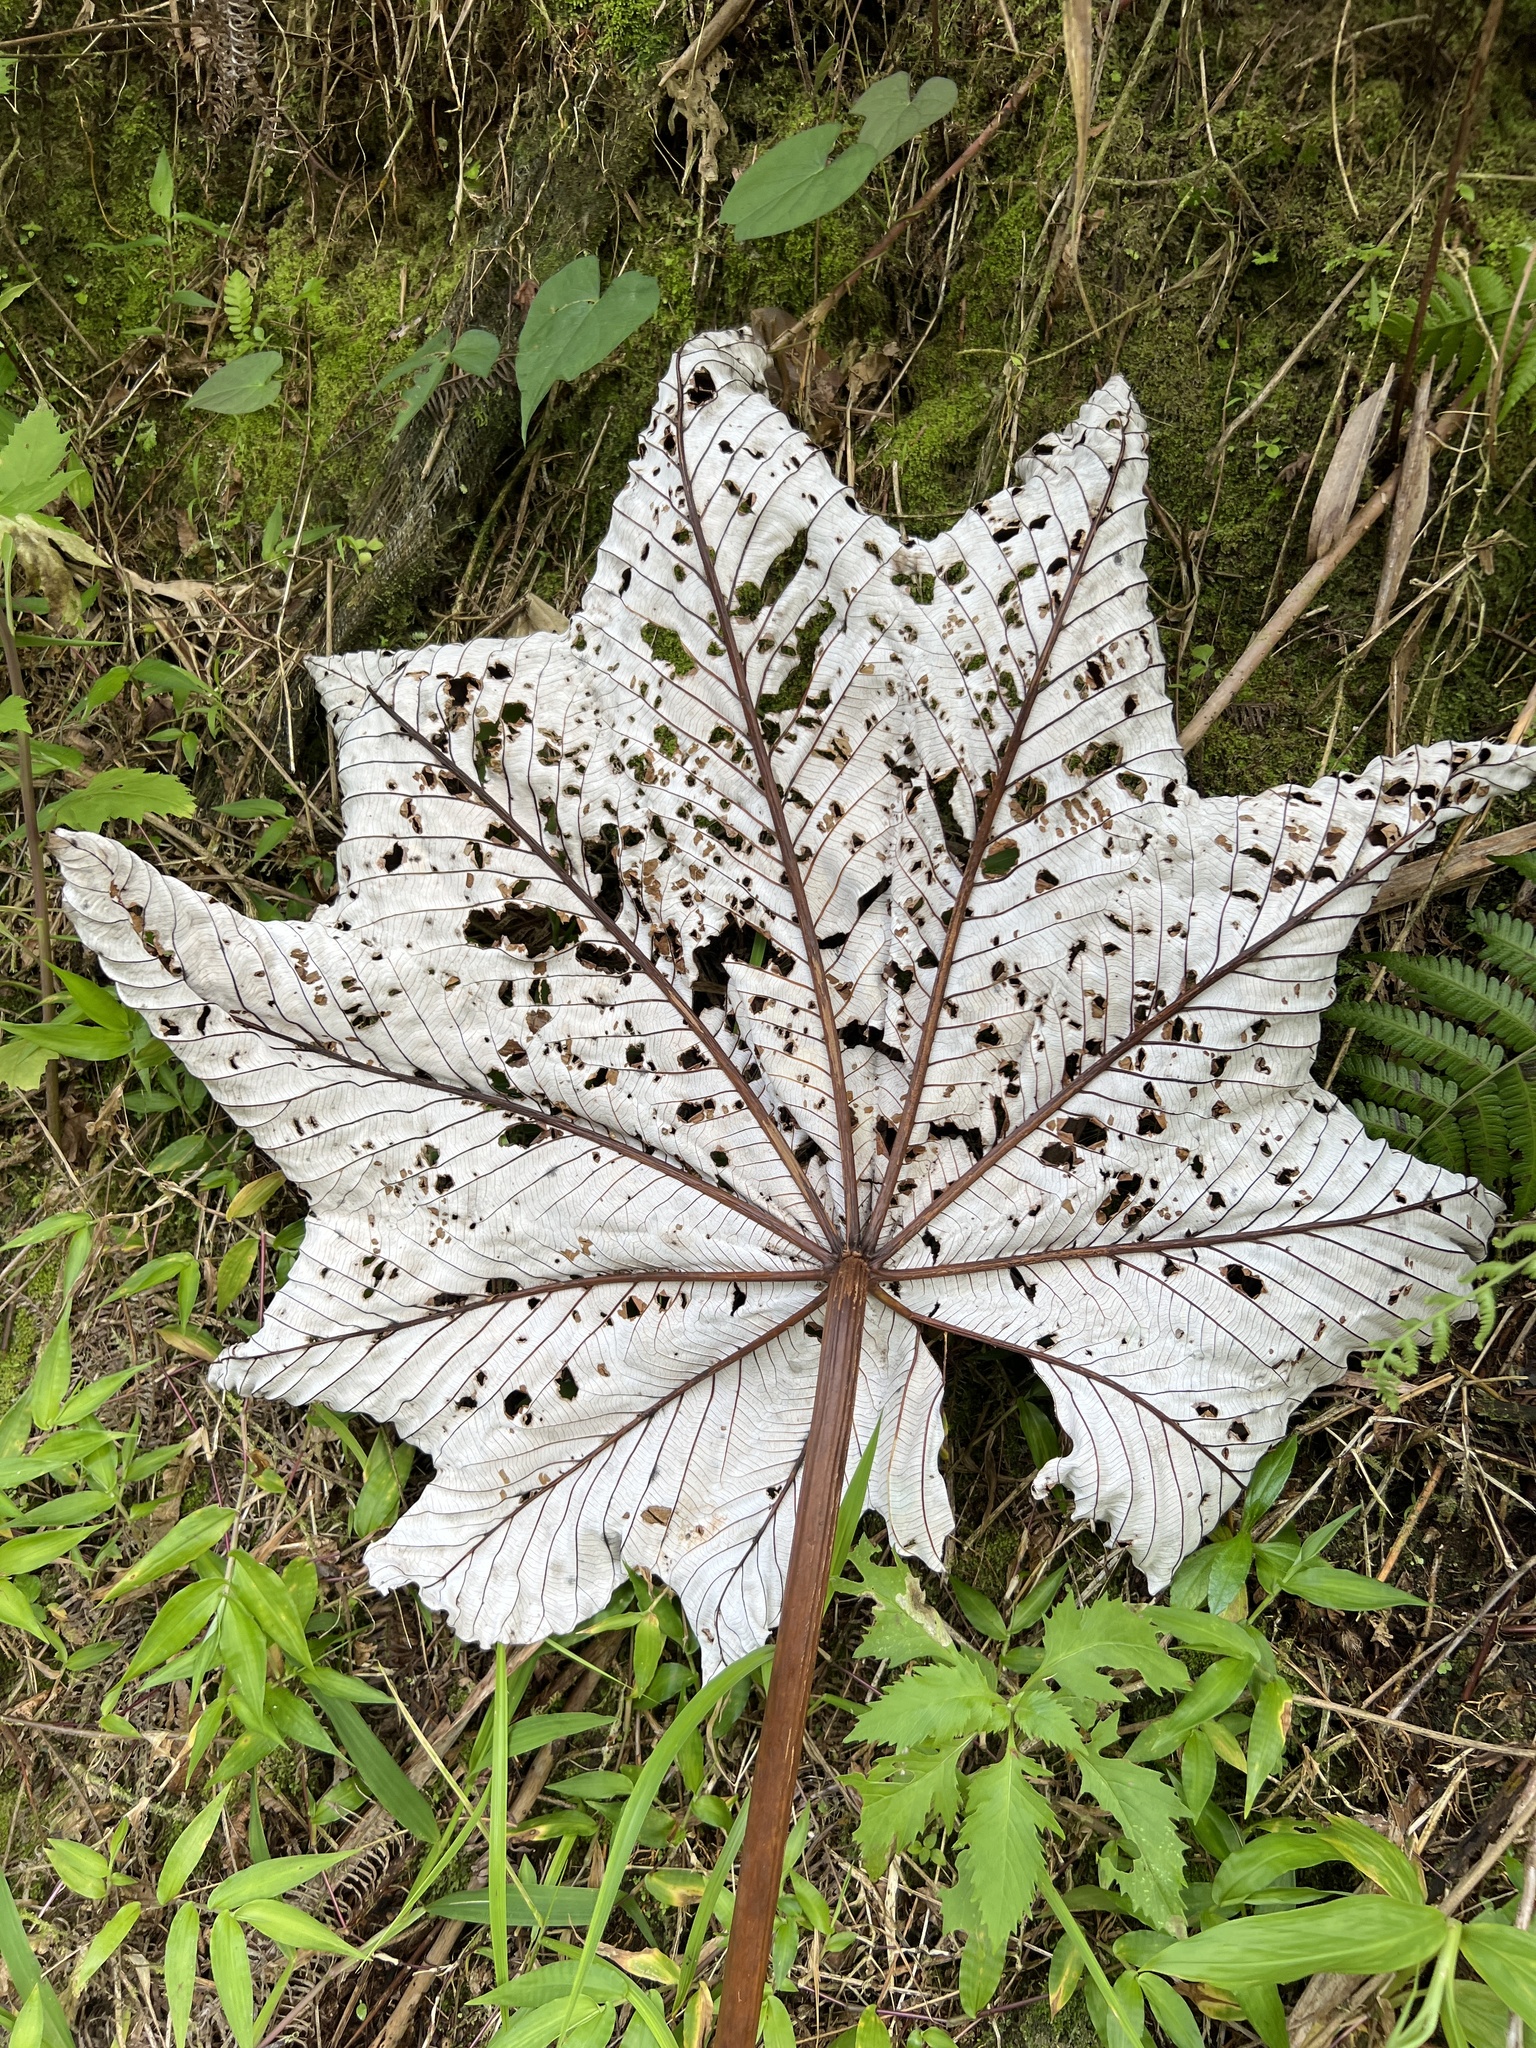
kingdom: Plantae
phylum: Tracheophyta
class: Magnoliopsida
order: Rosales
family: Urticaceae
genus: Cecropia
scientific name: Cecropia schreberiana
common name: Trumpet tree
